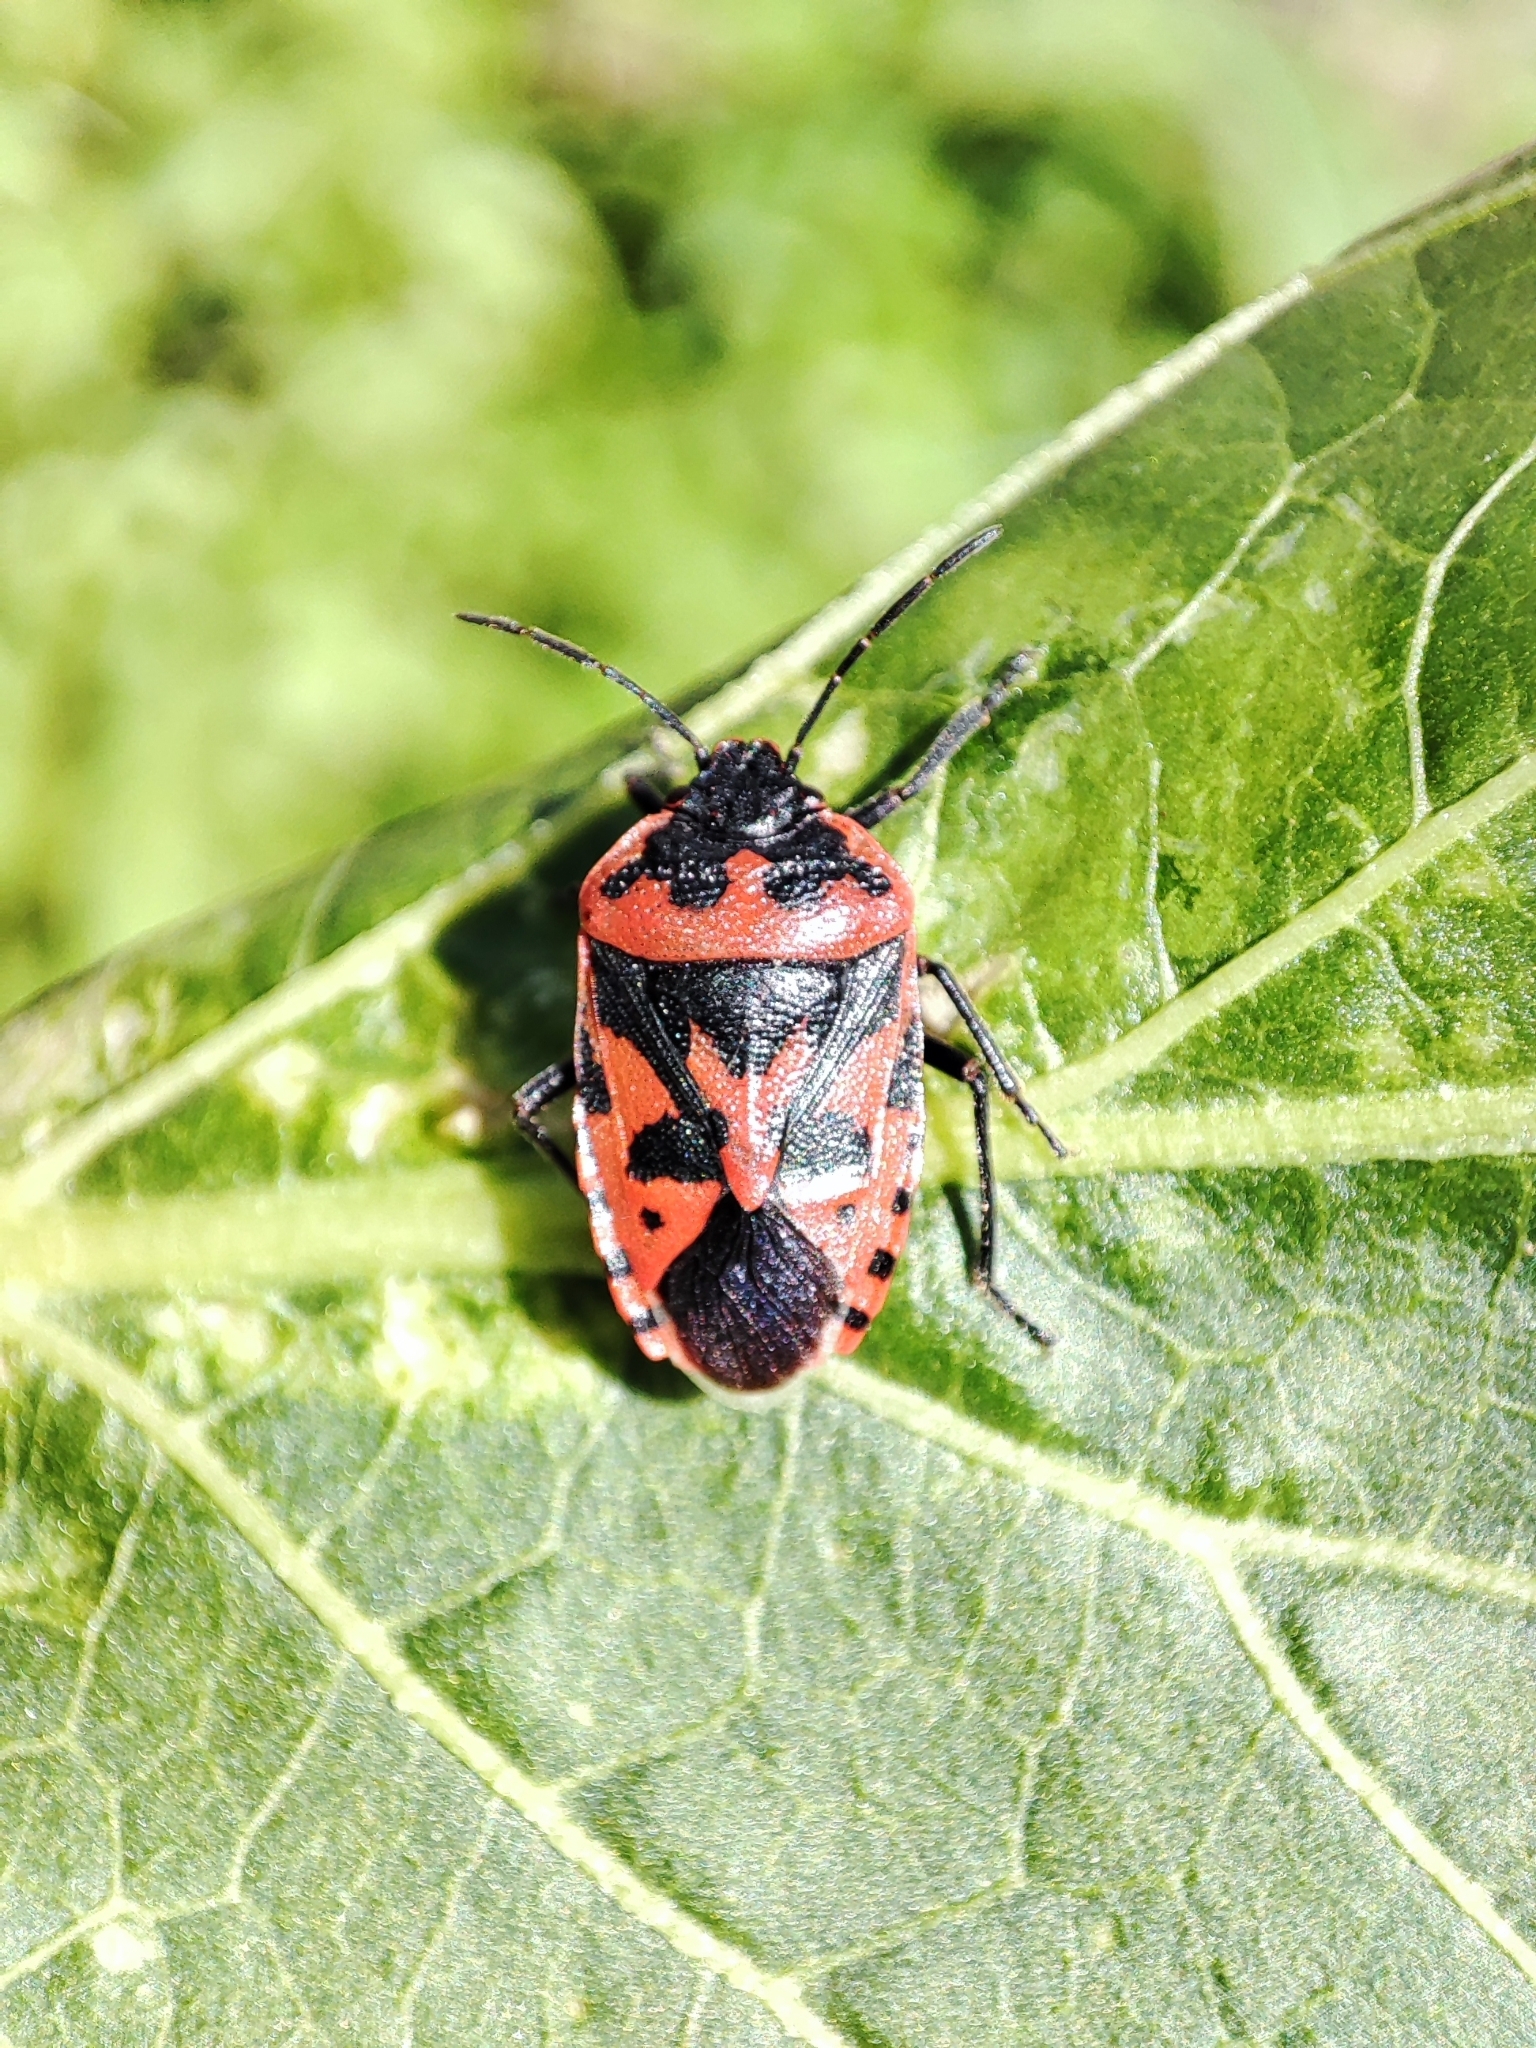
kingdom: Animalia
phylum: Arthropoda
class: Insecta
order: Hemiptera
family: Pentatomidae
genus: Eurydema
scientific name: Eurydema ventralis
